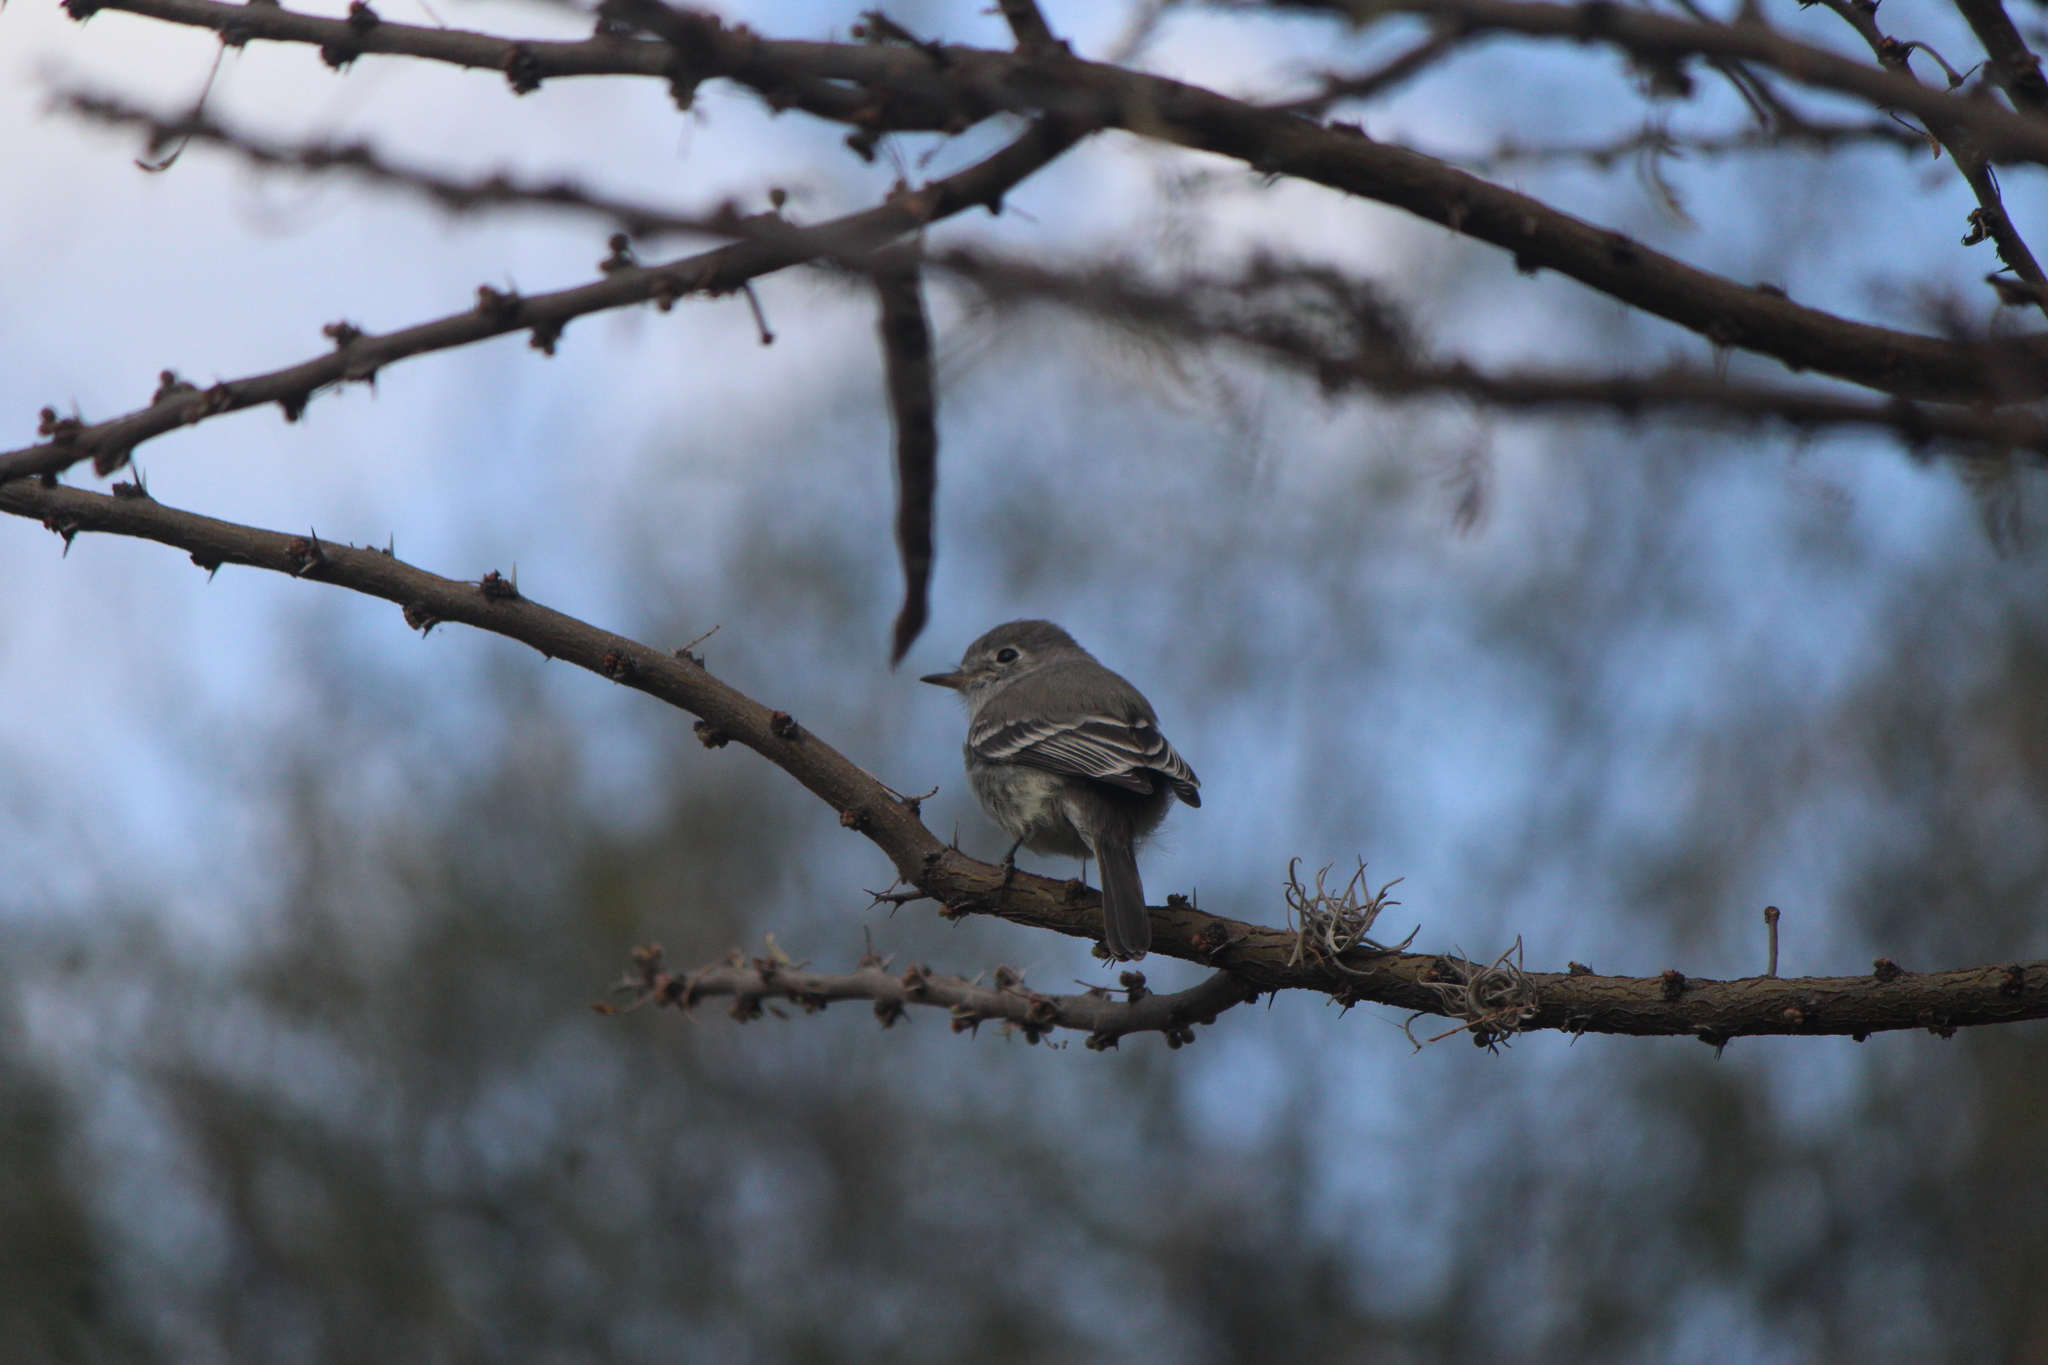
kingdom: Animalia
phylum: Chordata
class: Aves
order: Passeriformes
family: Tyrannidae
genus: Empidonax
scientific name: Empidonax wrightii
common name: Gray flycatcher
